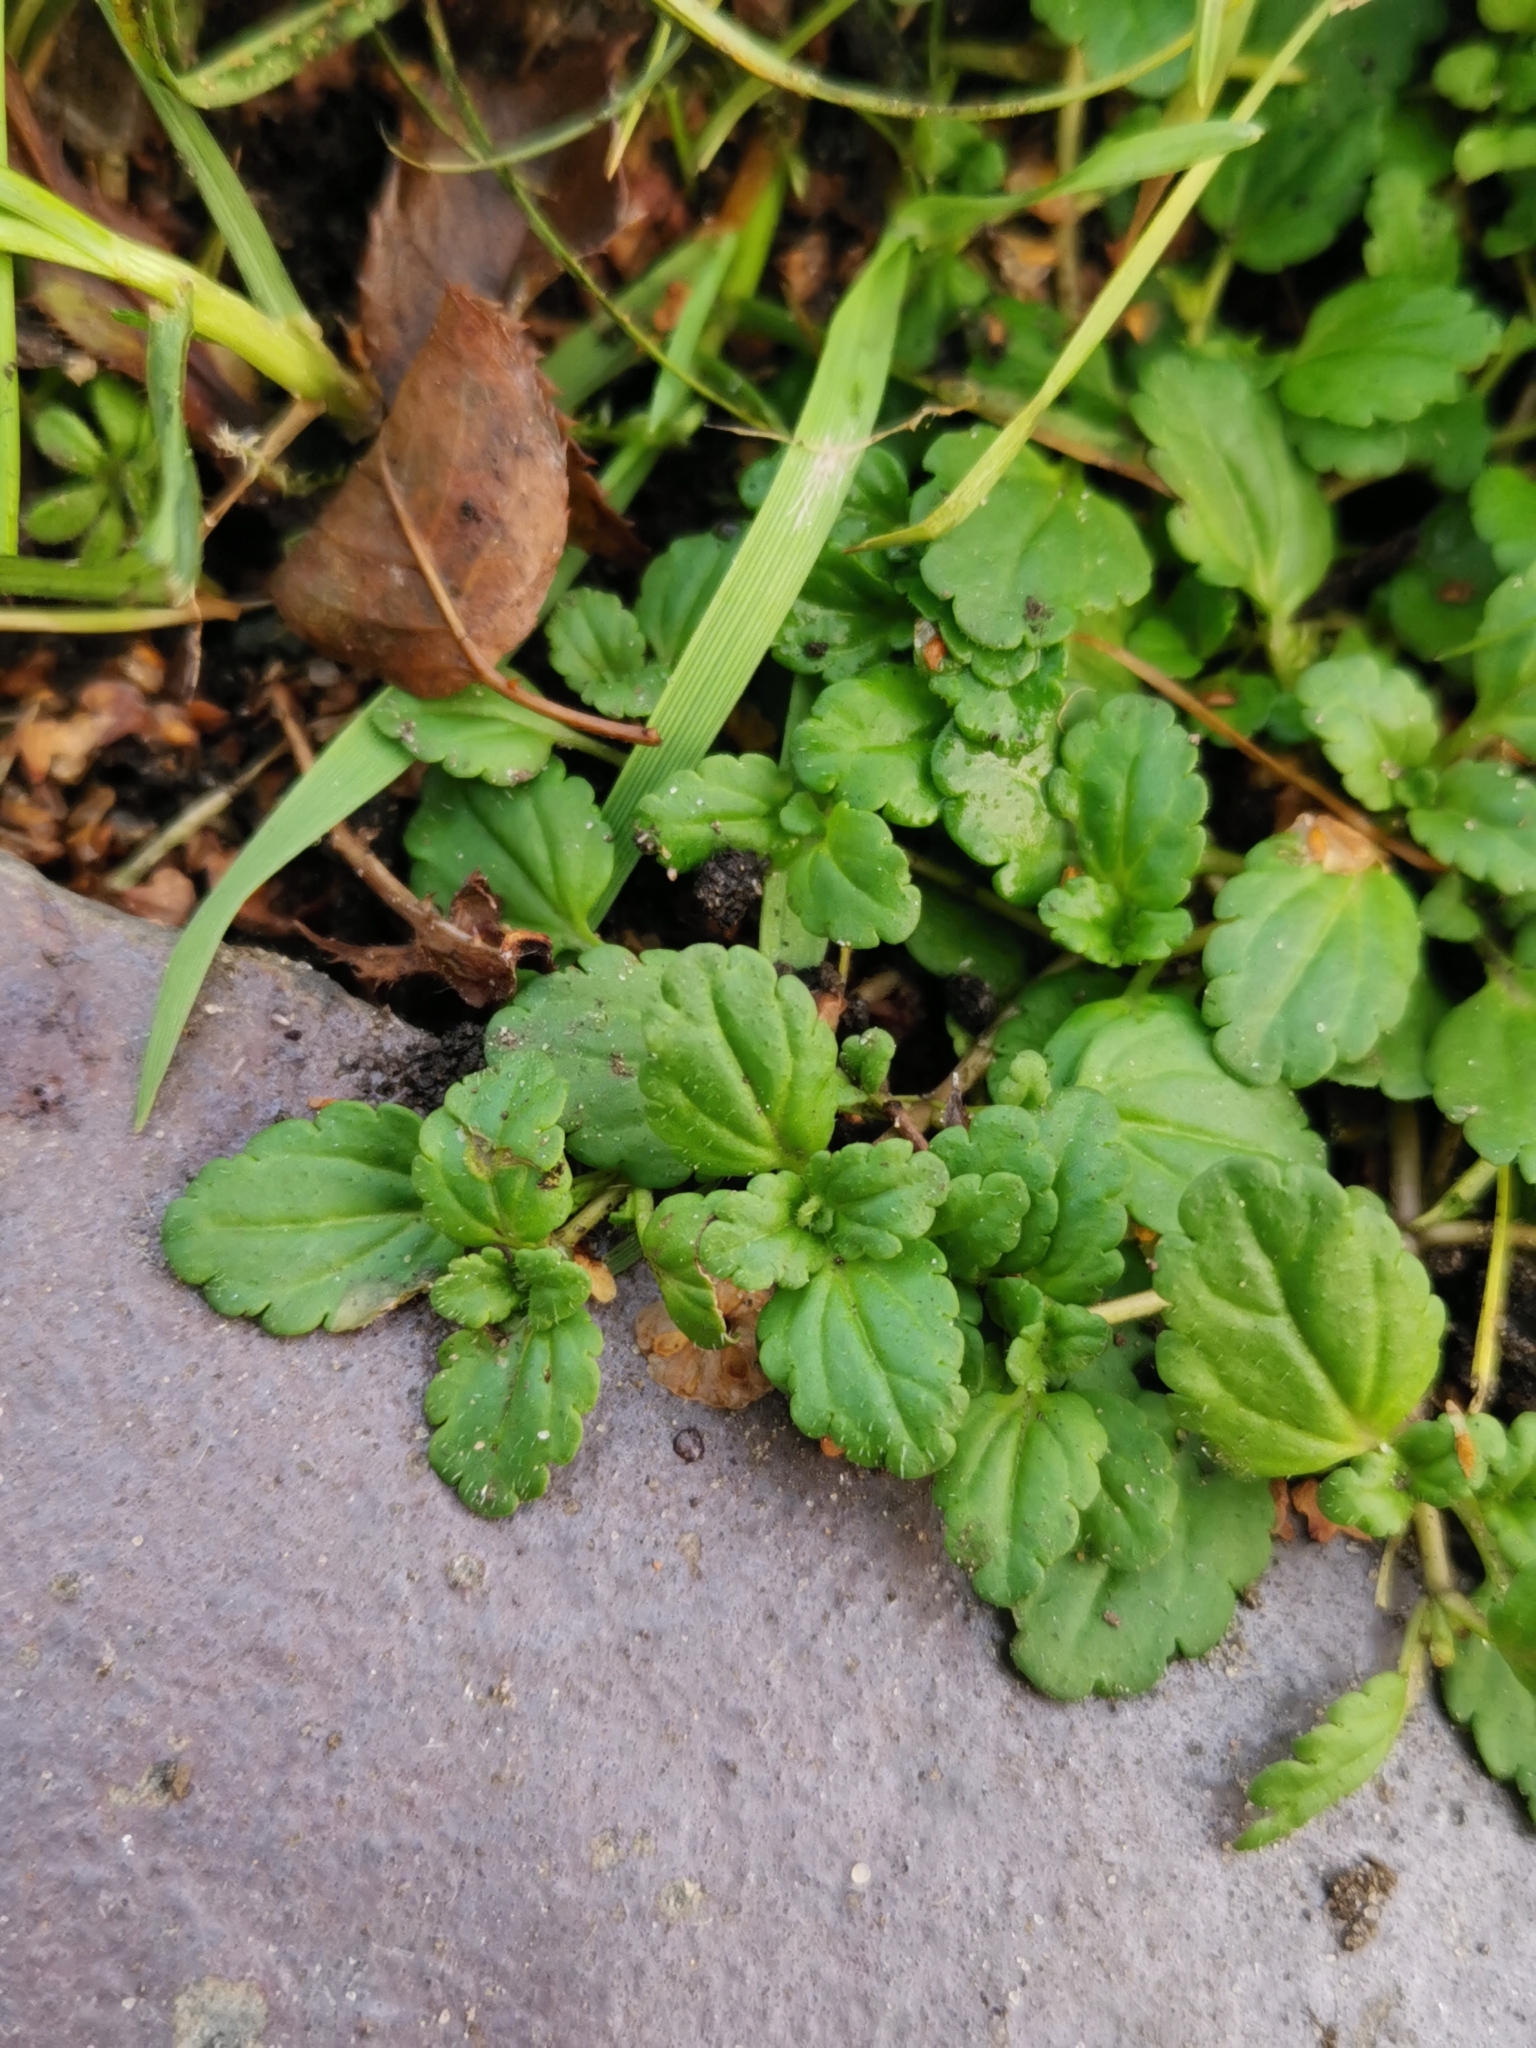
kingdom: Plantae
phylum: Tracheophyta
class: Magnoliopsida
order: Lamiales
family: Plantaginaceae
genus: Veronica
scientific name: Veronica persica
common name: Common field-speedwell
